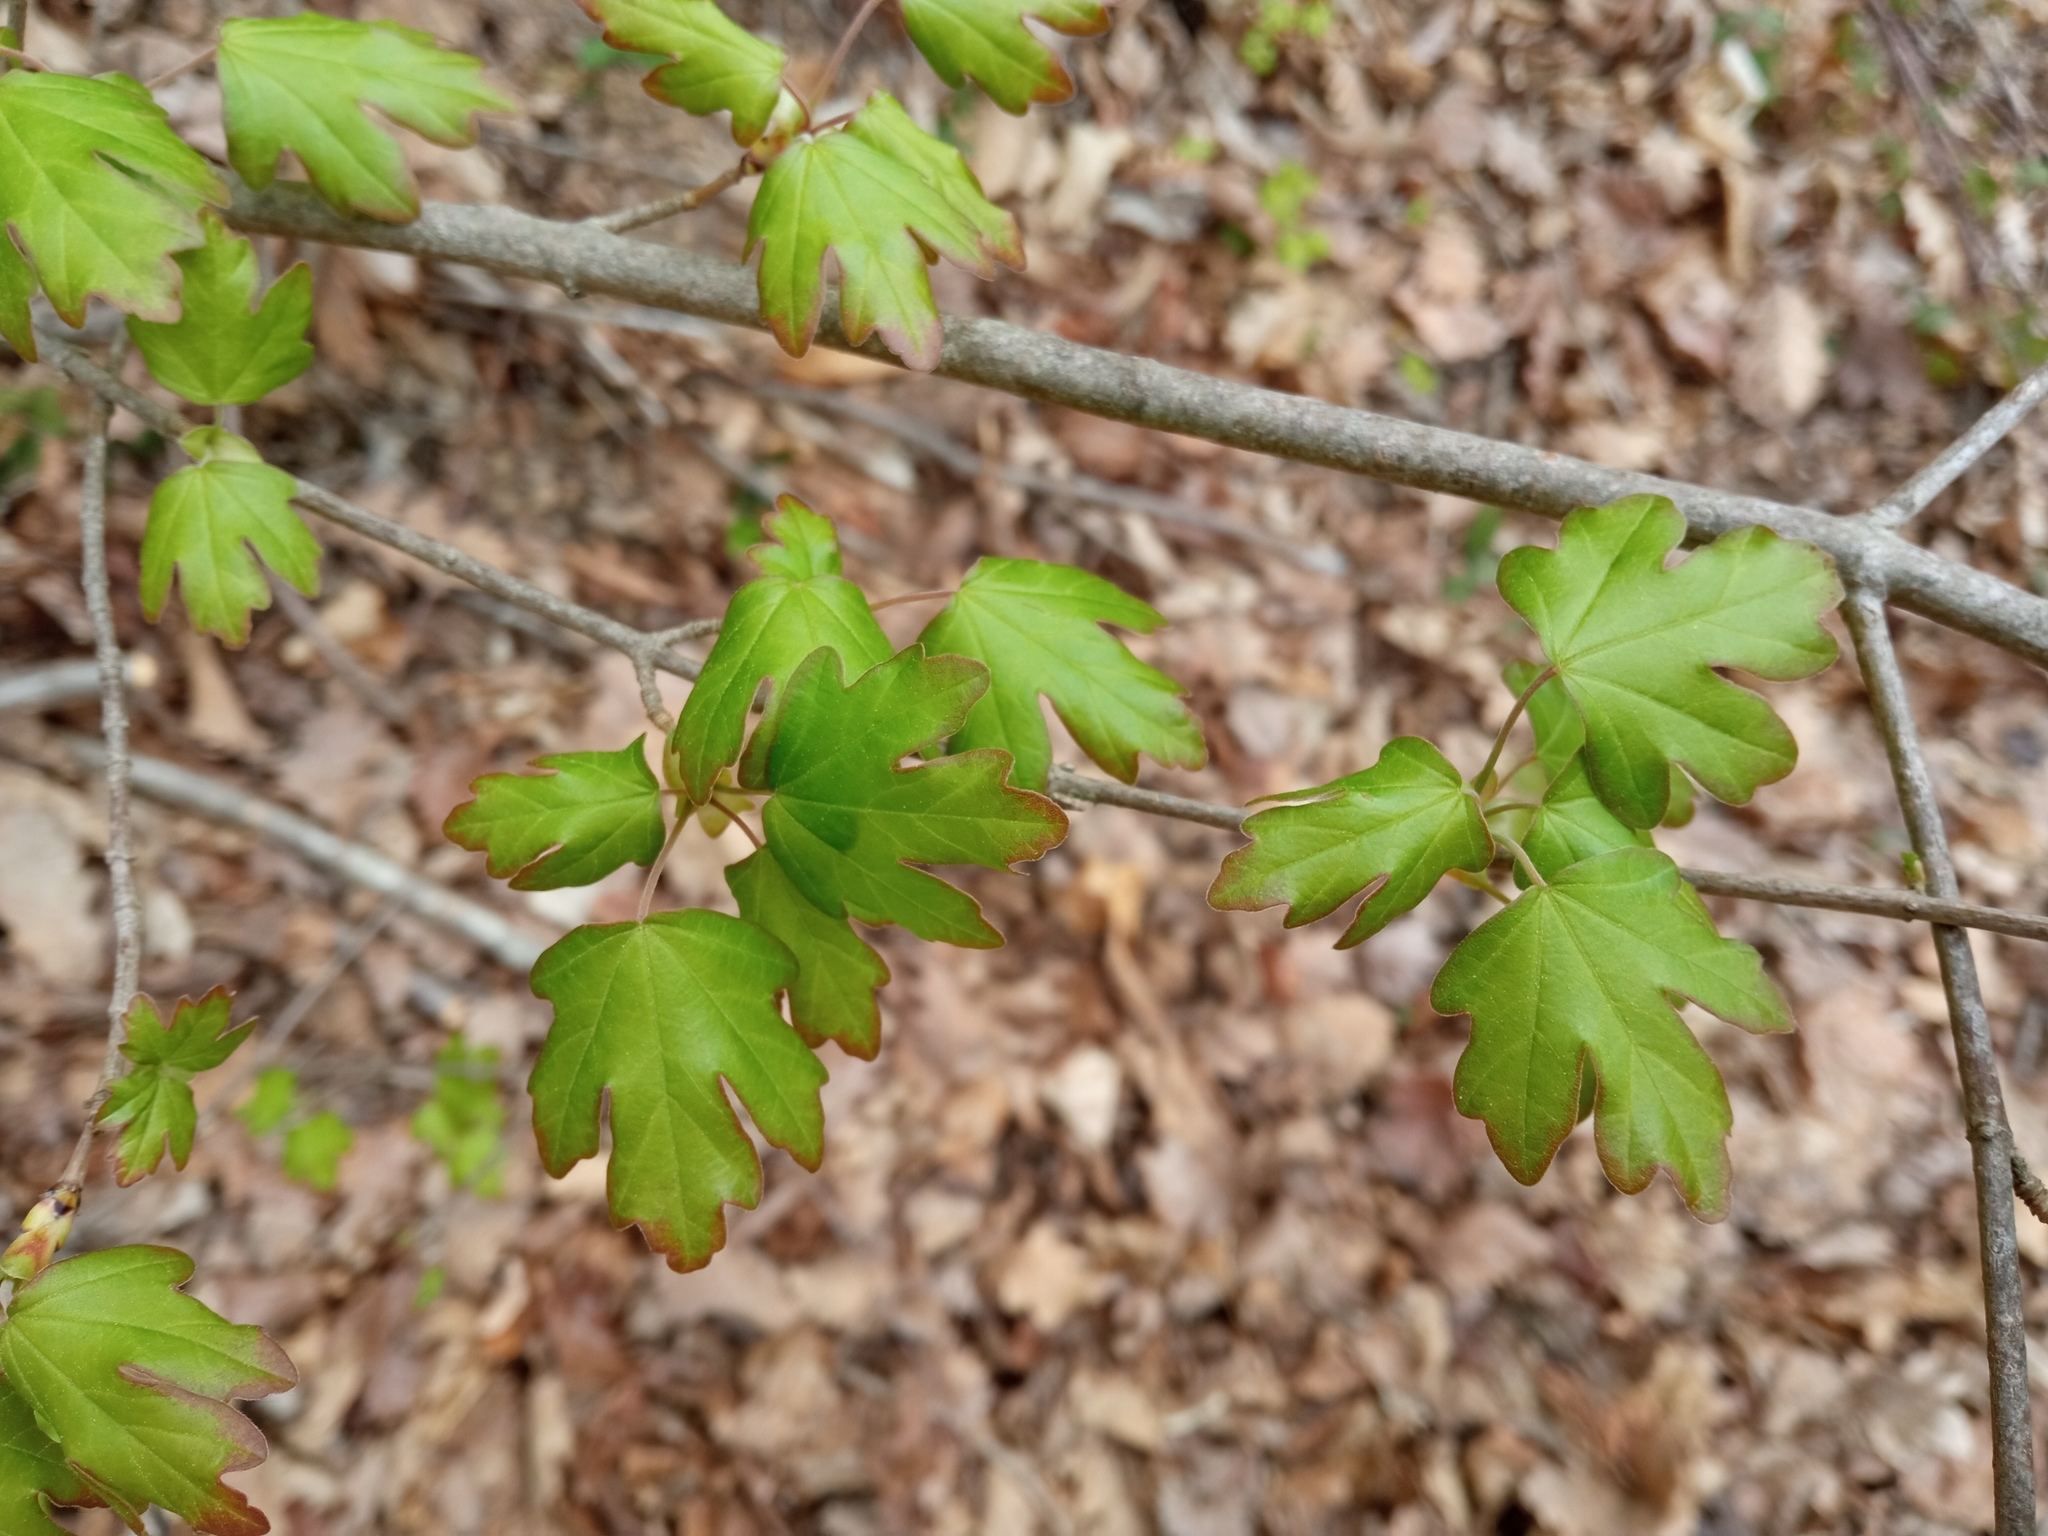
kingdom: Plantae
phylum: Tracheophyta
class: Magnoliopsida
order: Sapindales
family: Sapindaceae
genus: Acer
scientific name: Acer campestre
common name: Field maple
